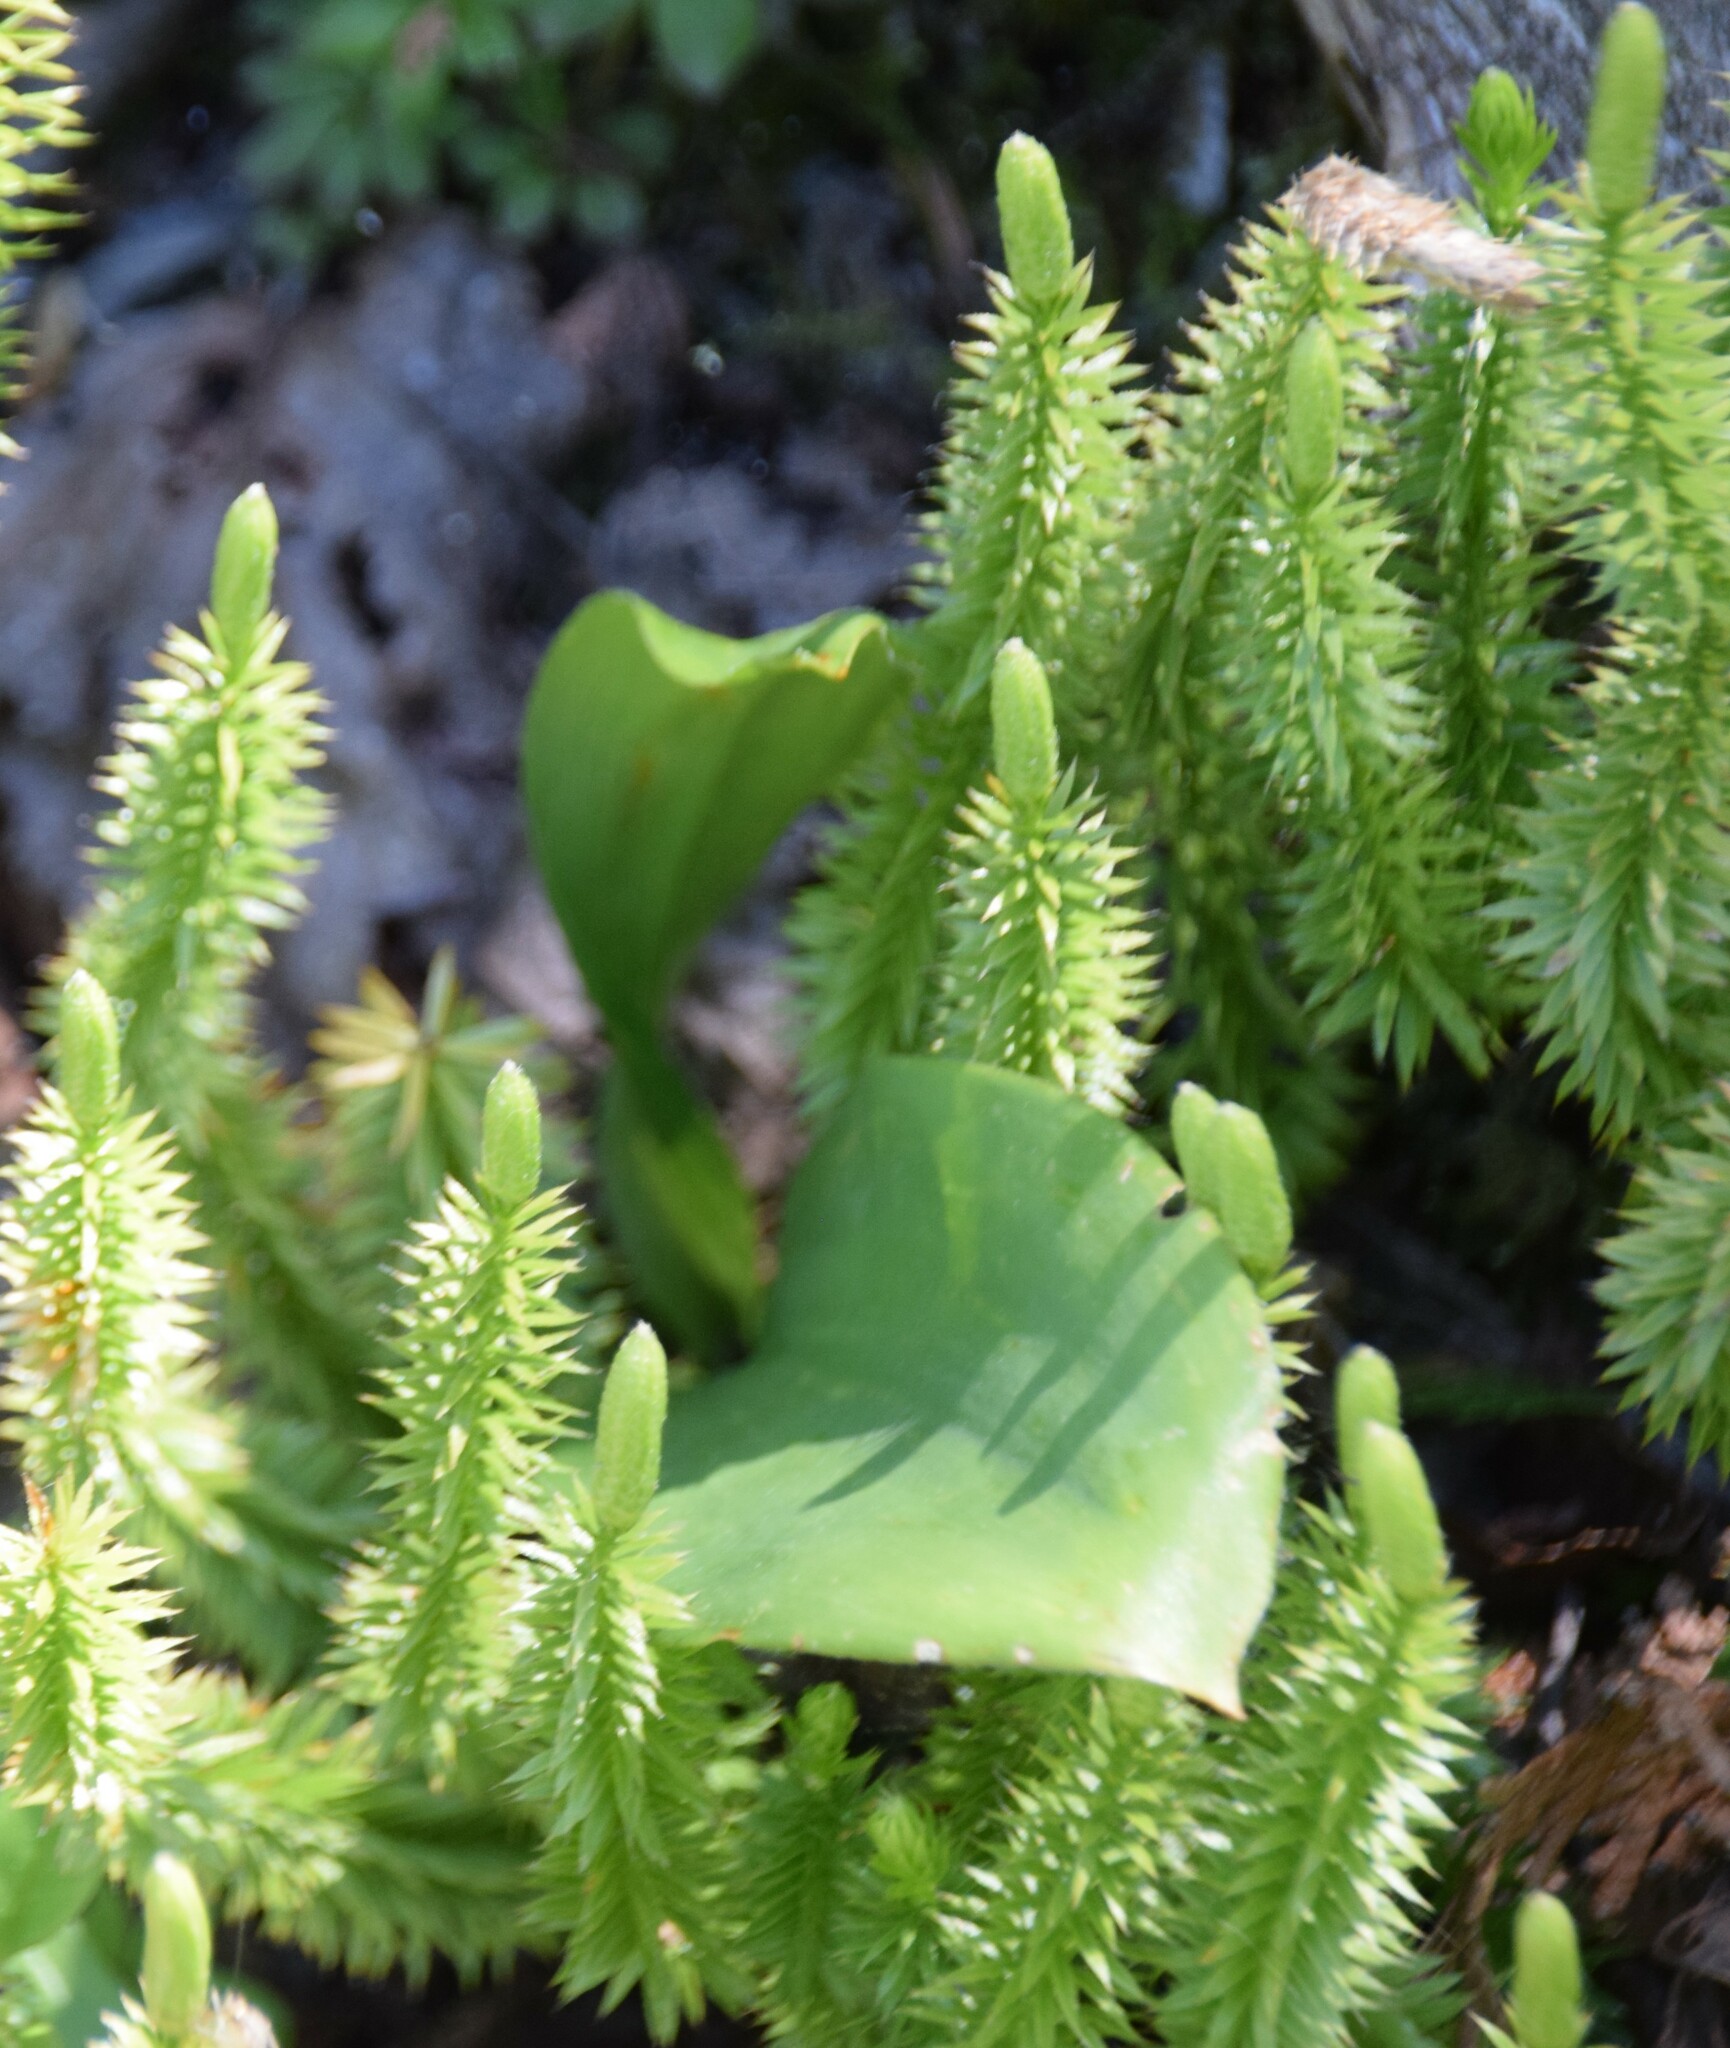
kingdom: Plantae
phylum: Tracheophyta
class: Lycopodiopsida
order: Lycopodiales
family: Lycopodiaceae
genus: Spinulum
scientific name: Spinulum annotinum
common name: Interrupted club-moss
